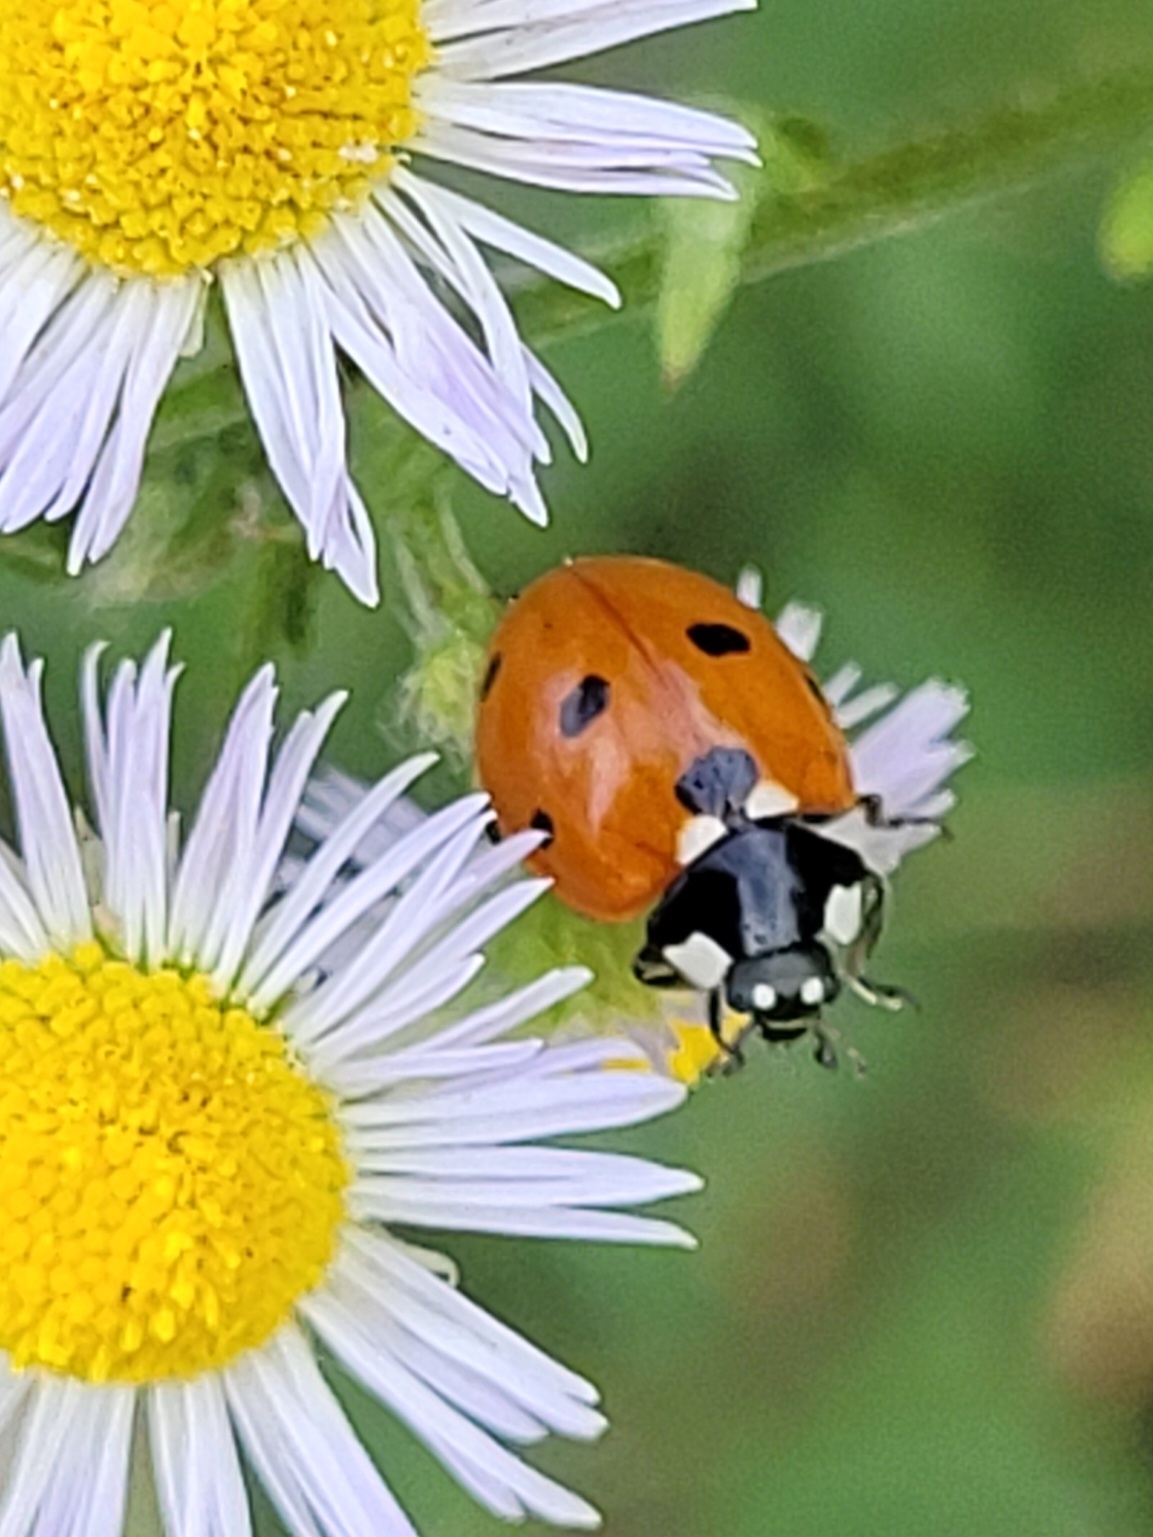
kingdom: Animalia
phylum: Arthropoda
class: Insecta
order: Coleoptera
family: Coccinellidae
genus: Coccinella
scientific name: Coccinella septempunctata
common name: Sevenspotted lady beetle
